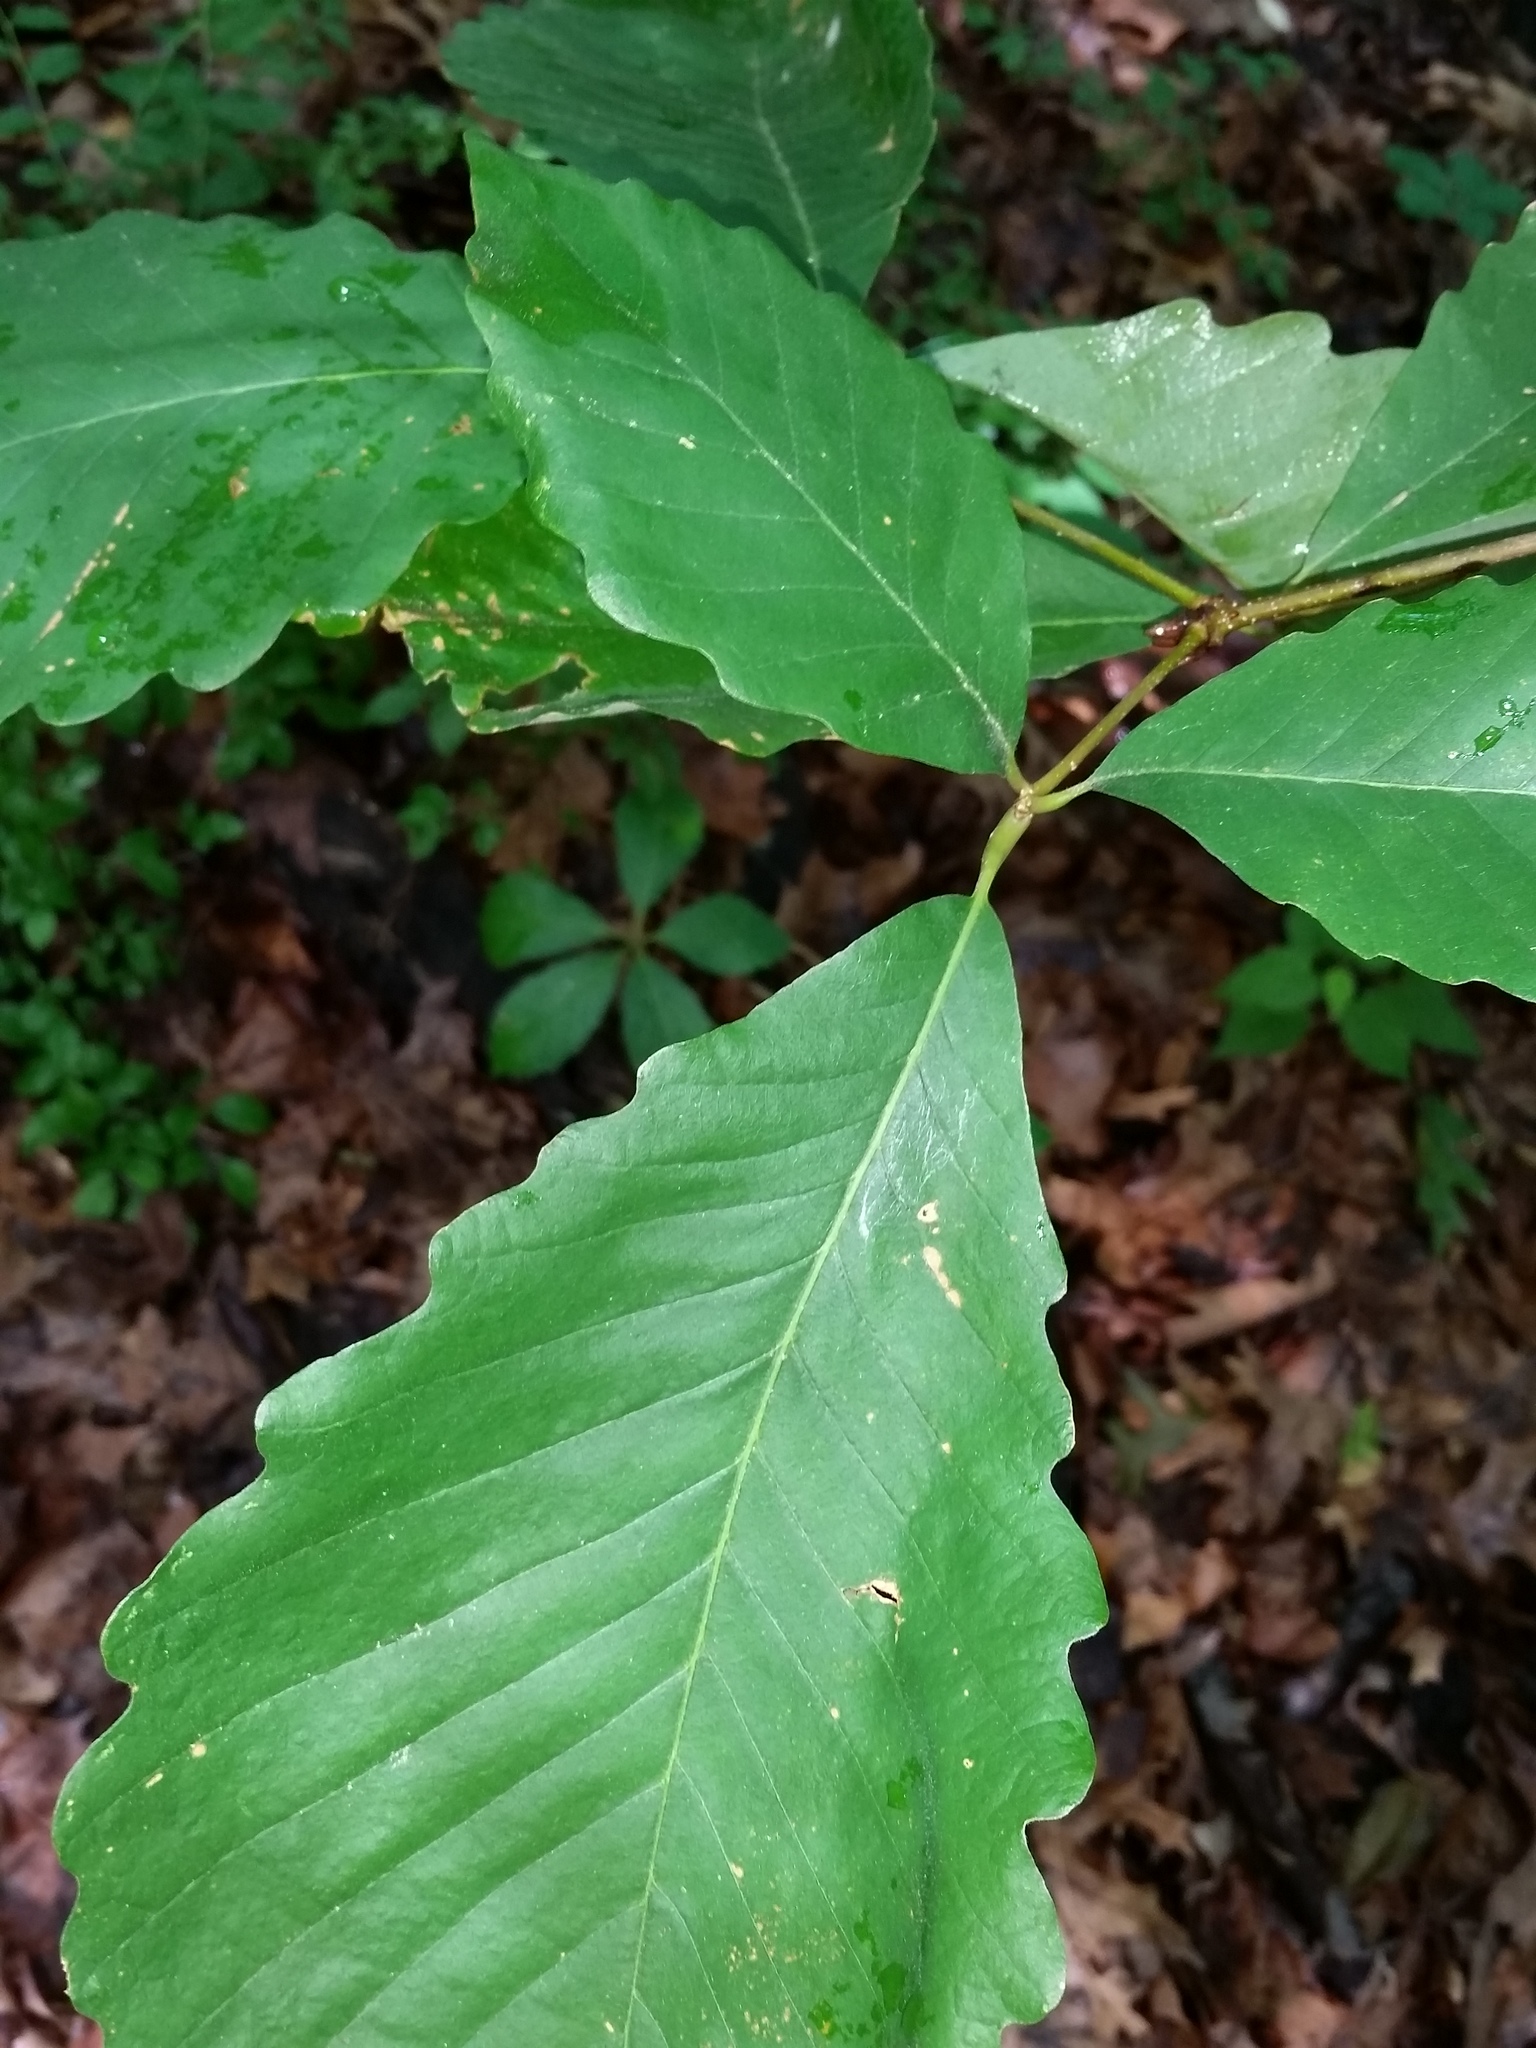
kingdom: Plantae
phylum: Tracheophyta
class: Magnoliopsida
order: Fagales
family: Fagaceae
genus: Quercus
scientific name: Quercus montana
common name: Chestnut oak
